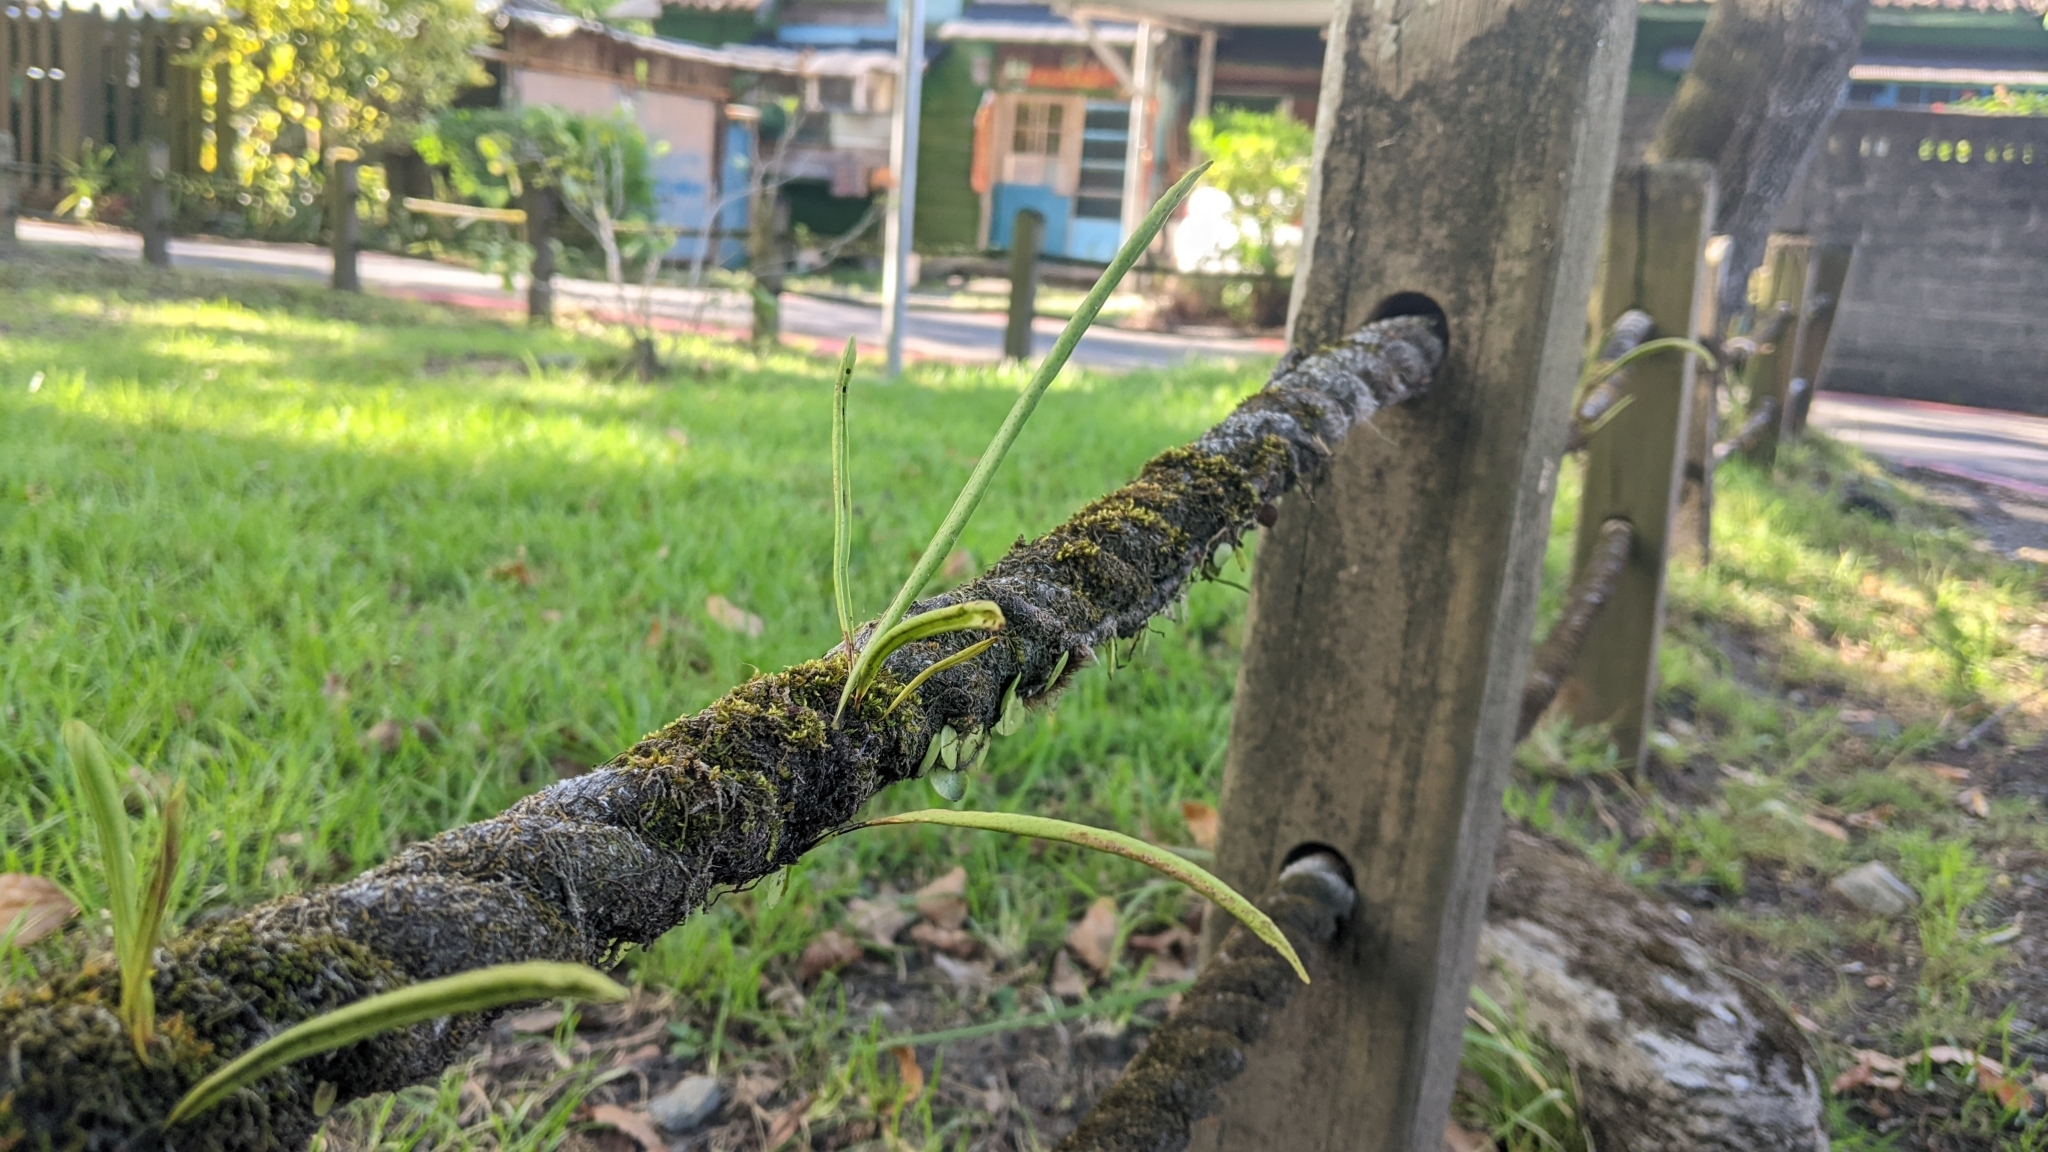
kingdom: Plantae
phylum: Tracheophyta
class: Polypodiopsida
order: Polypodiales
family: Polypodiaceae
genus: Lepisorus
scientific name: Lepisorus thunbergianus
